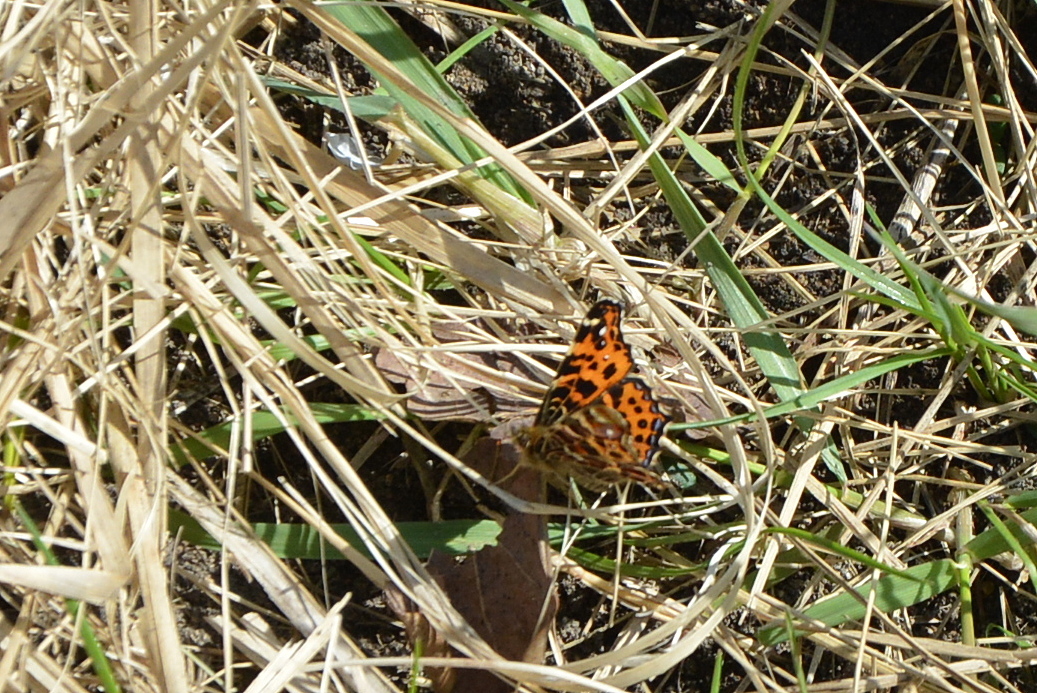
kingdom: Animalia
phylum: Arthropoda
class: Insecta
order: Lepidoptera
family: Nymphalidae
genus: Araschnia
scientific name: Araschnia levana
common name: Map butterfly
